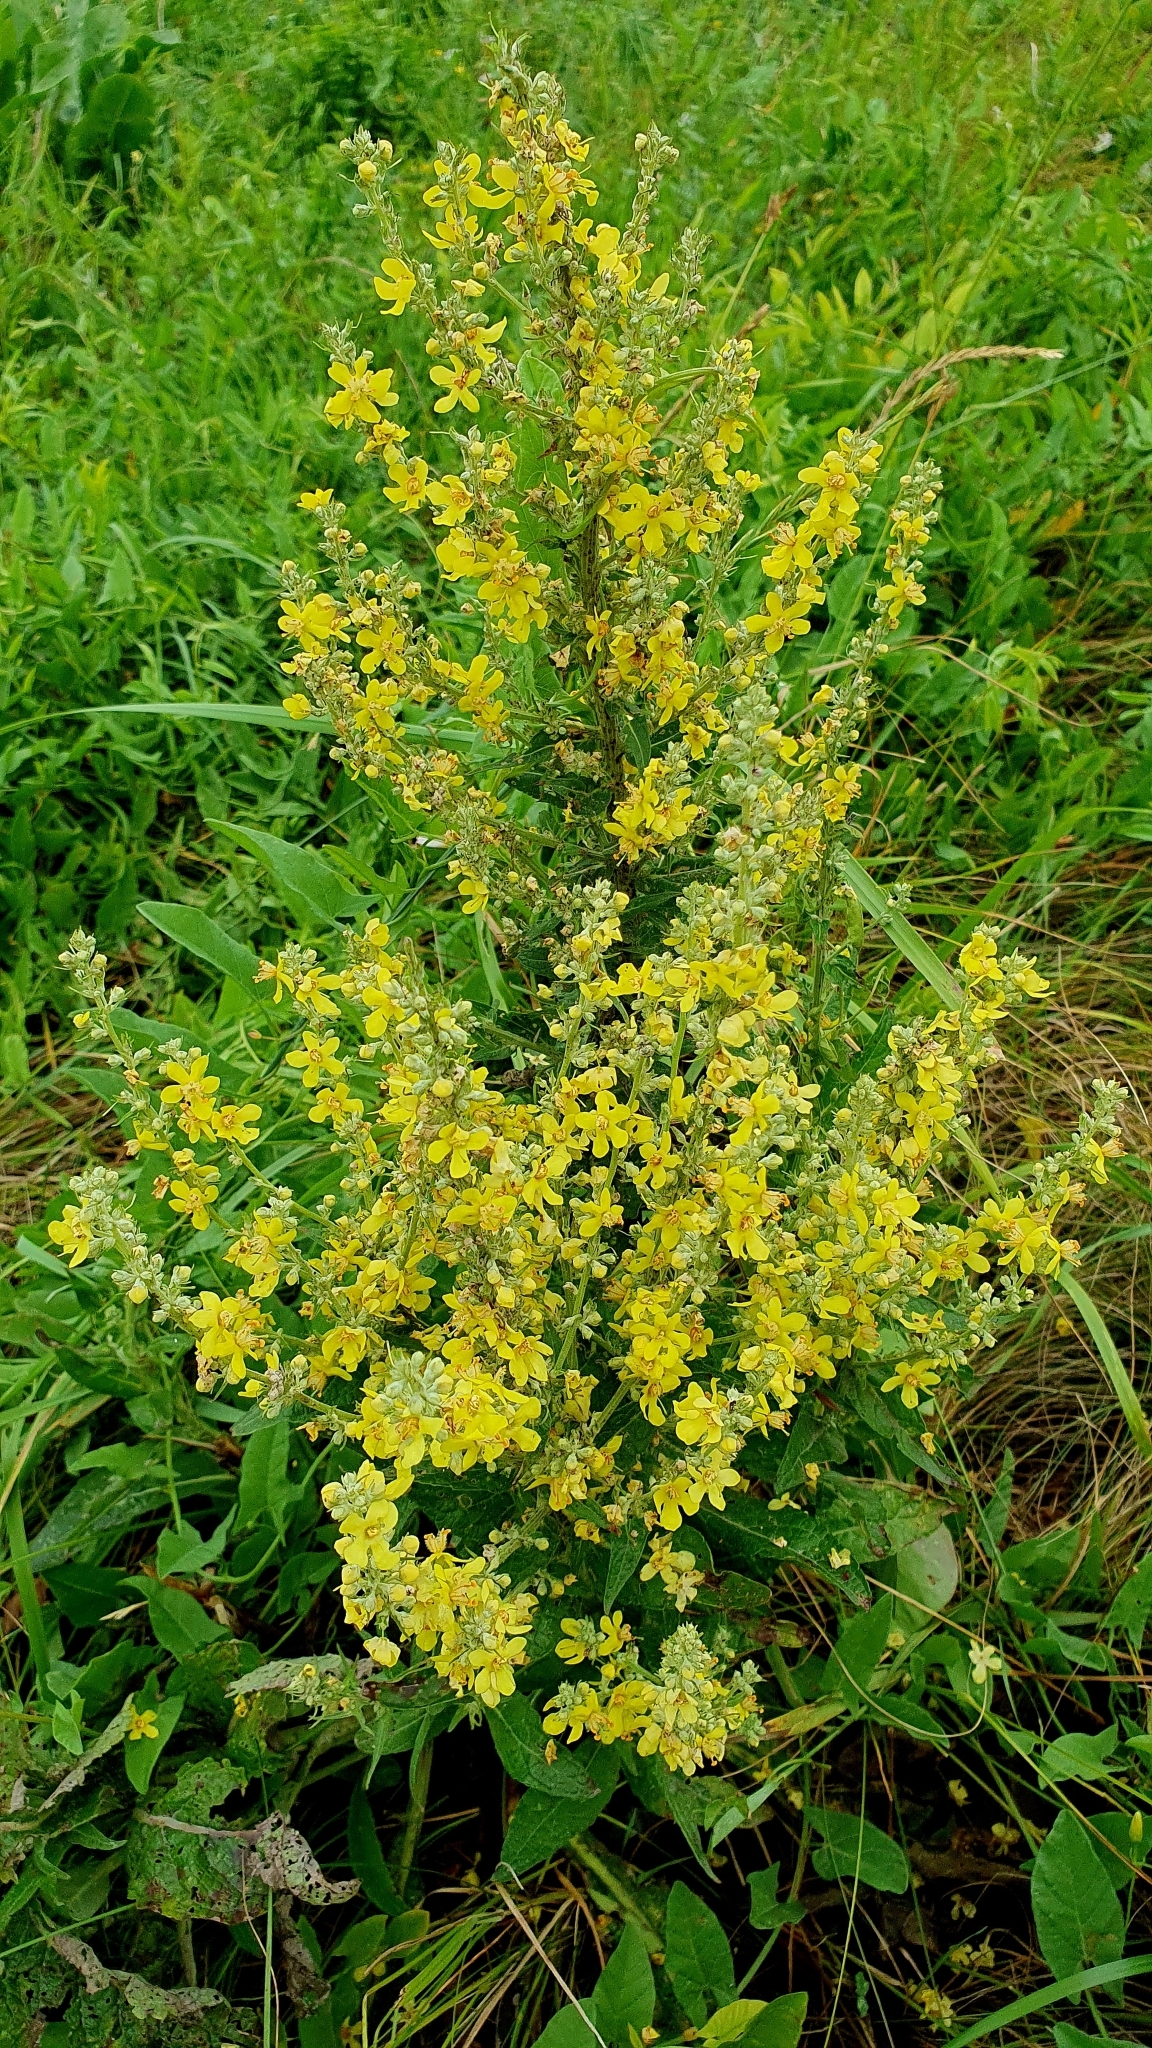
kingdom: Plantae
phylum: Tracheophyta
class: Magnoliopsida
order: Lamiales
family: Scrophulariaceae
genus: Verbascum
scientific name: Verbascum lychnitis
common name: White mullein
